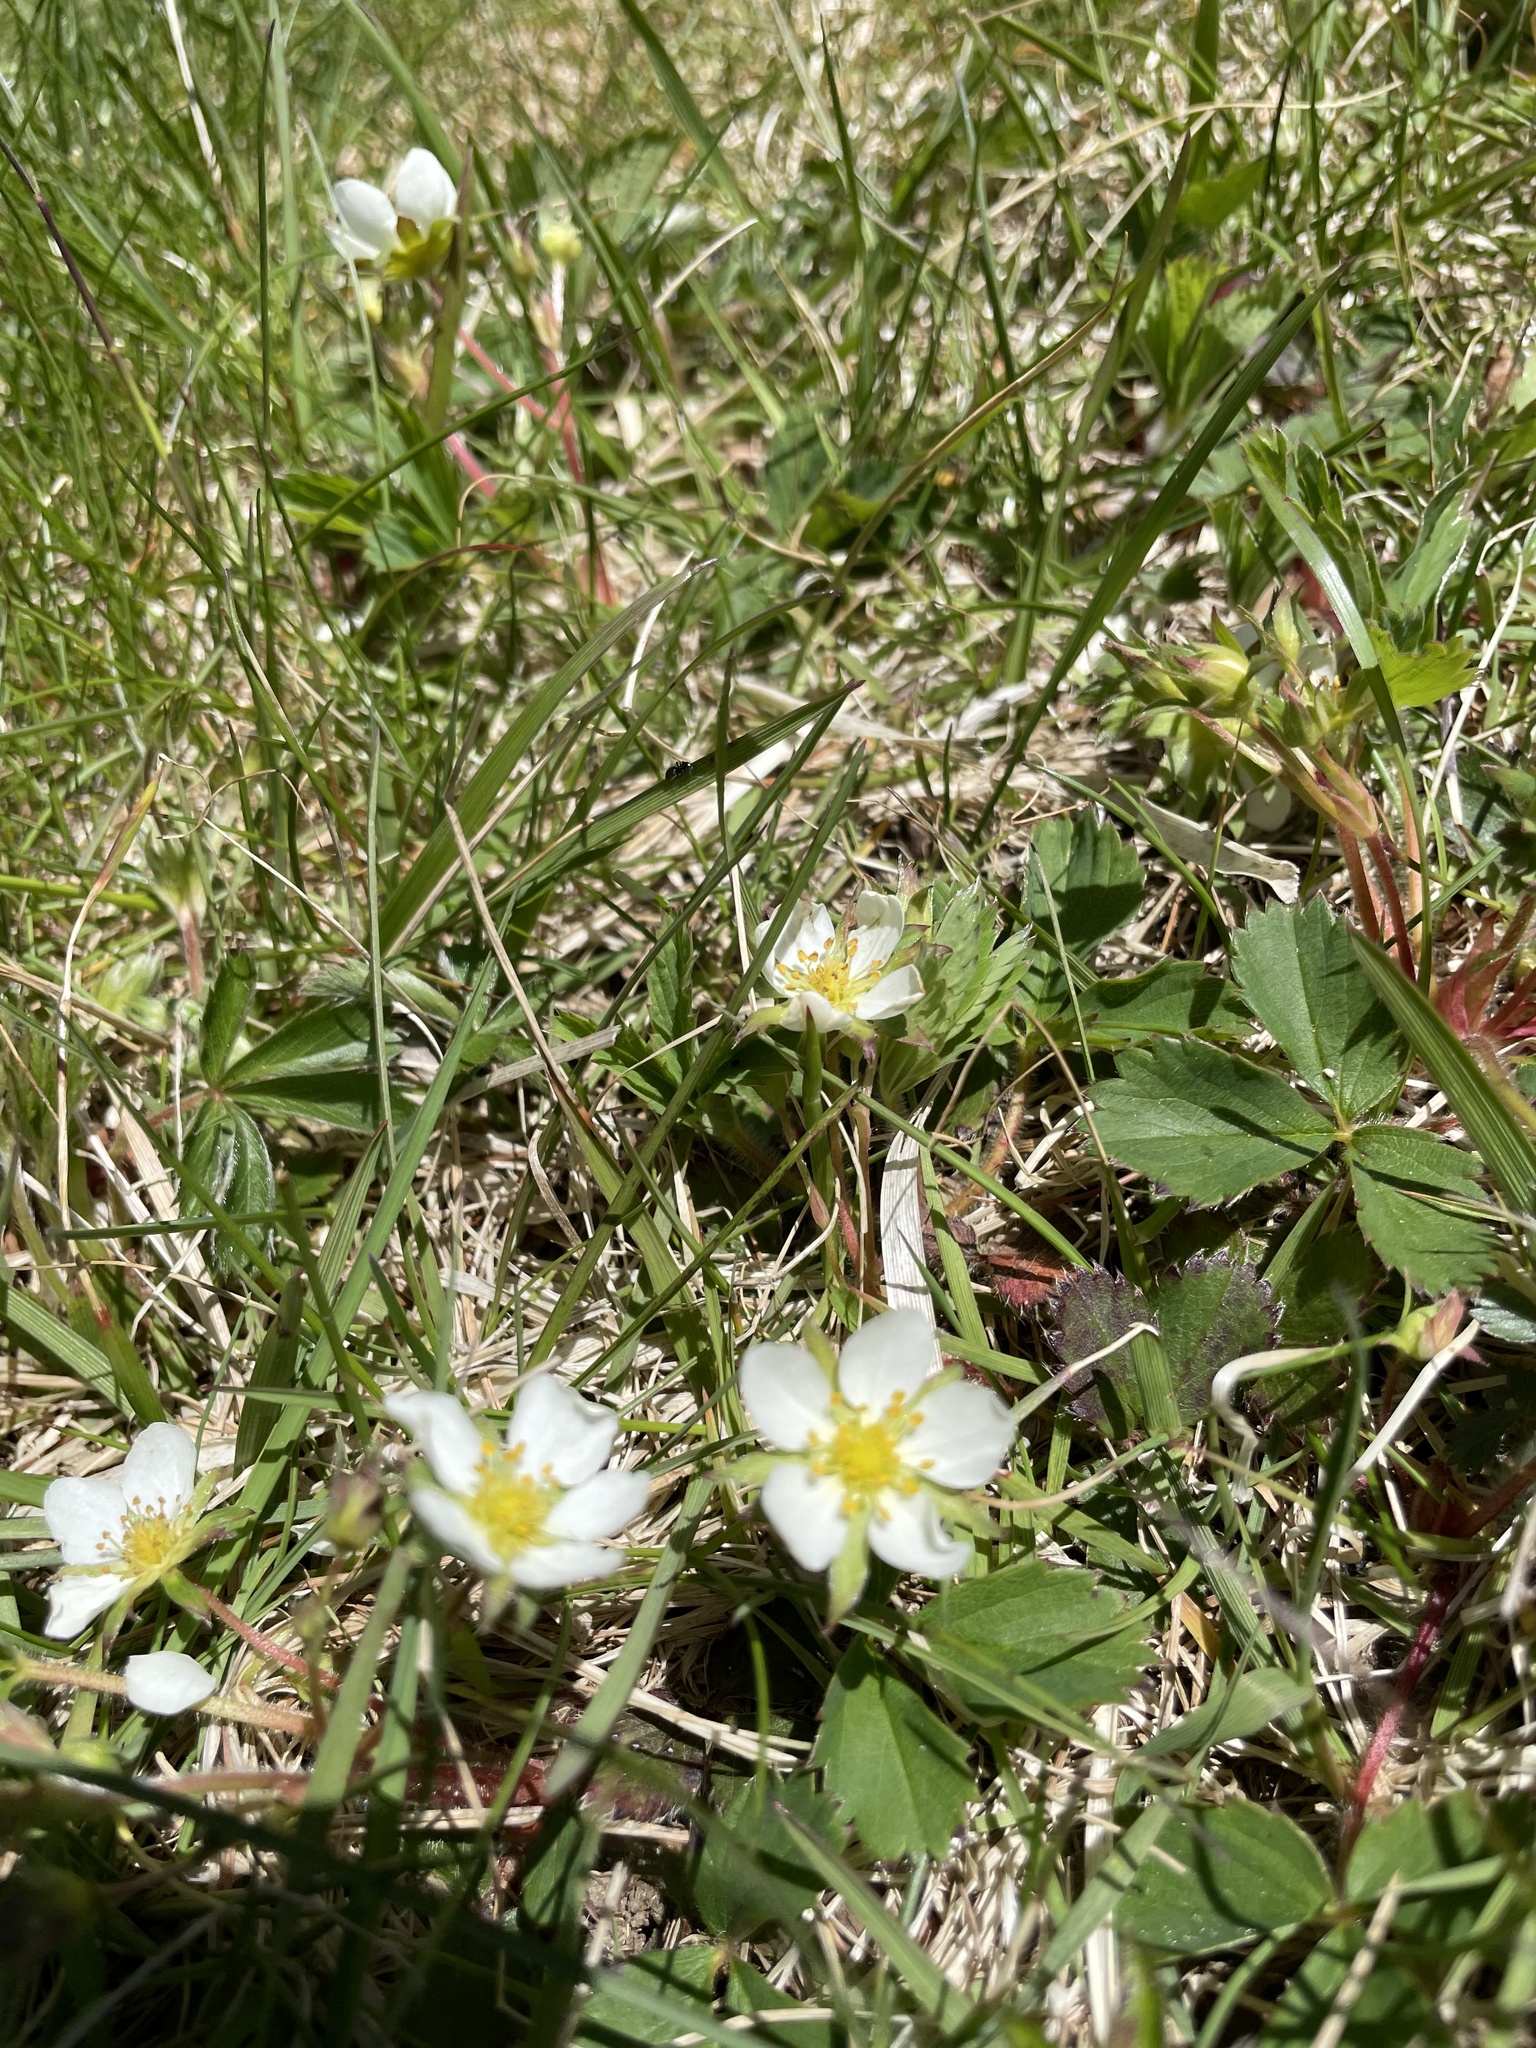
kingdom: Plantae
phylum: Tracheophyta
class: Magnoliopsida
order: Rosales
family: Rosaceae
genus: Fragaria
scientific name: Fragaria virginiana
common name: Thickleaved wild strawberry
